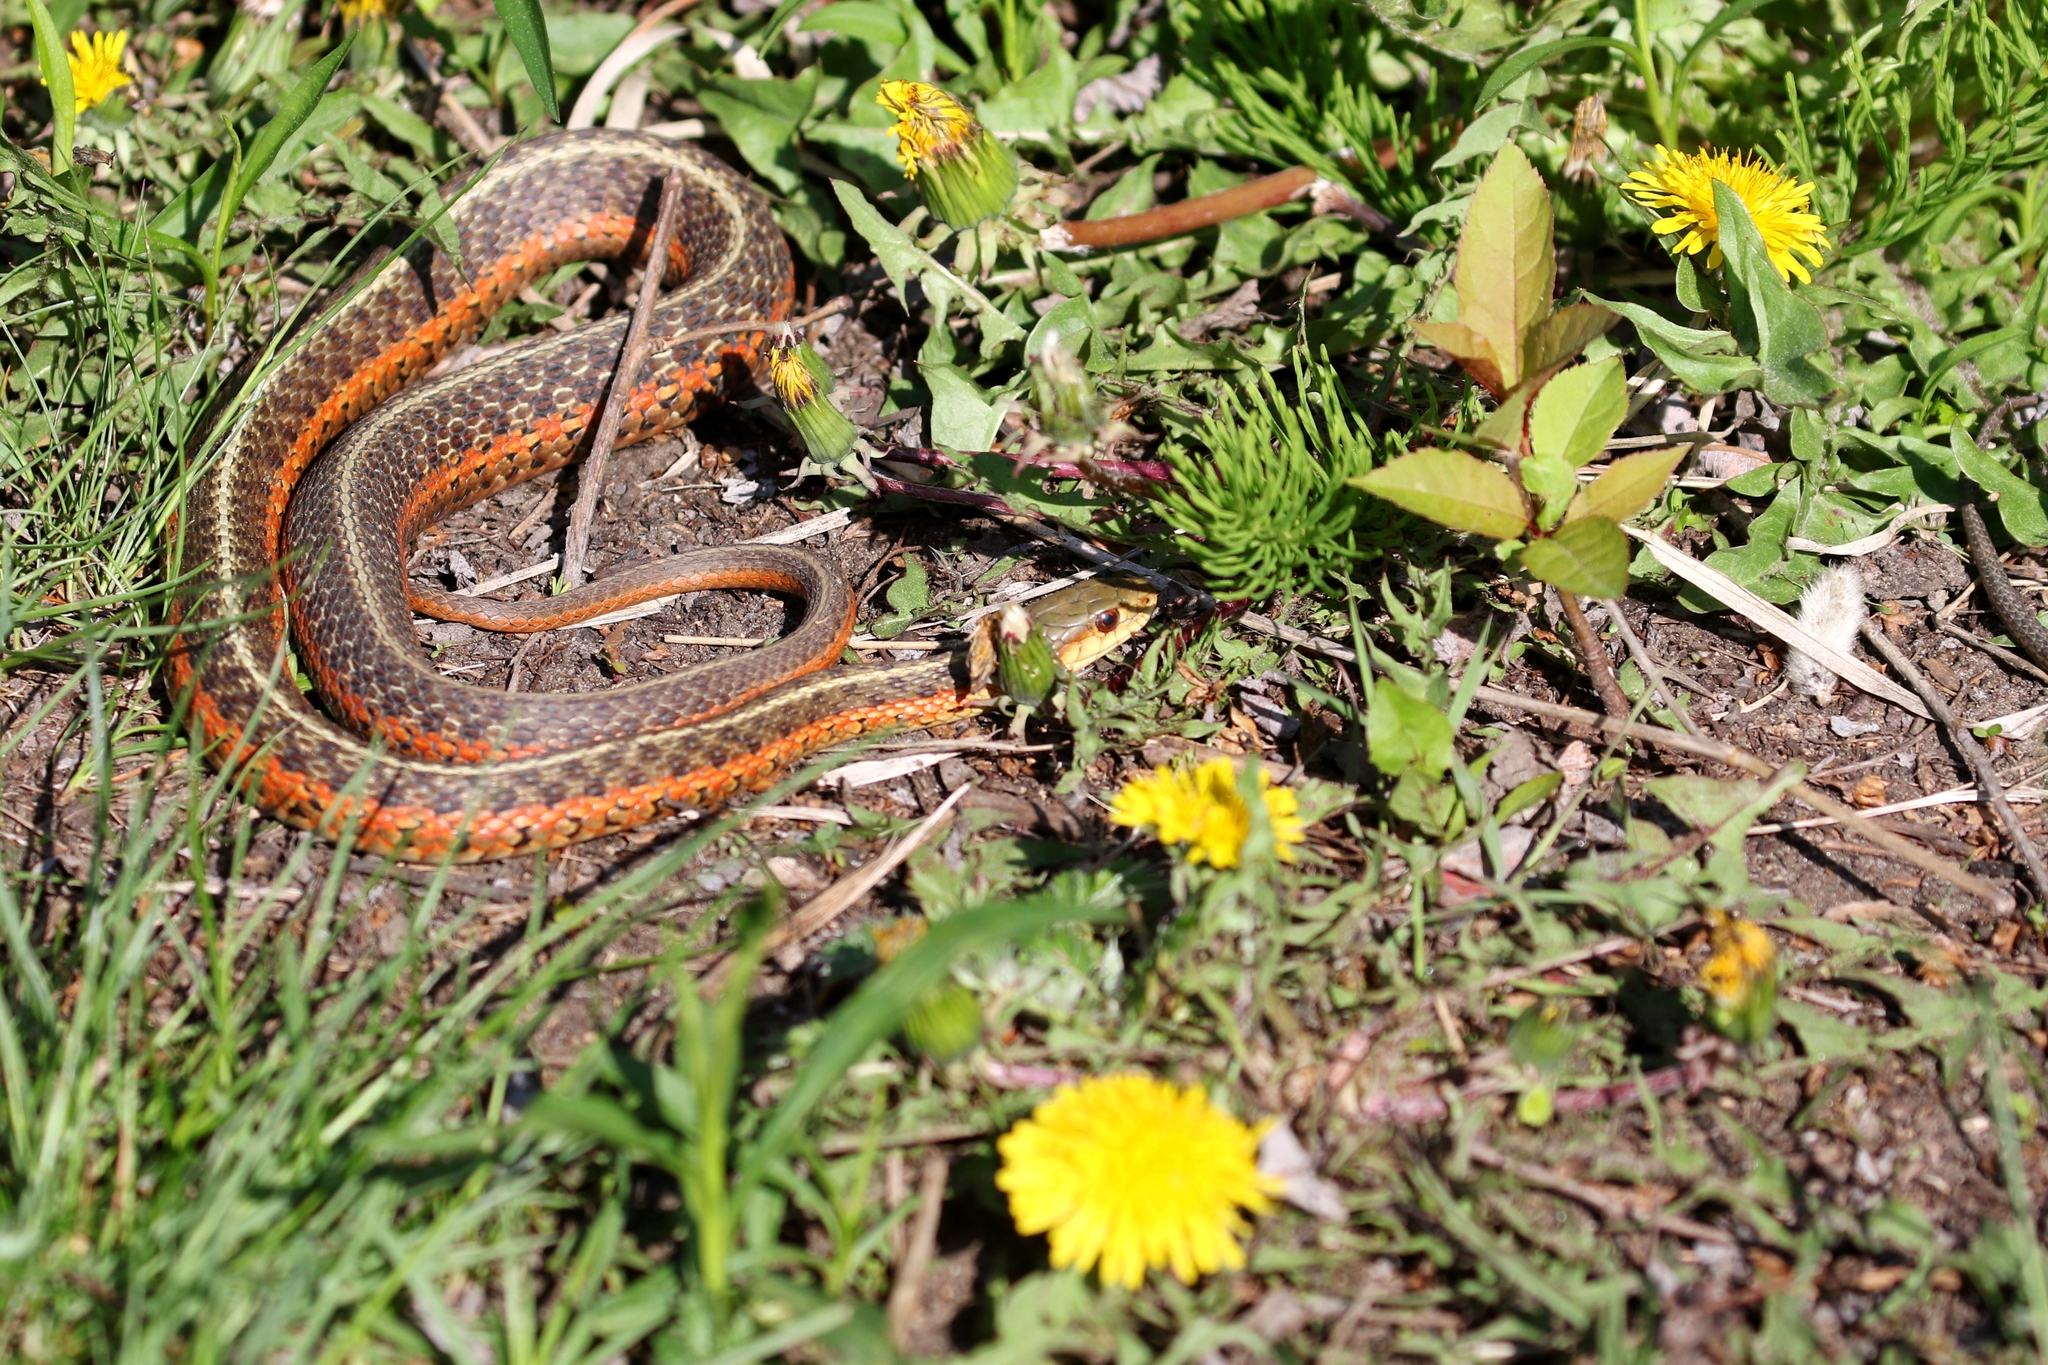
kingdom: Animalia
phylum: Chordata
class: Squamata
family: Colubridae
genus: Thamnophis
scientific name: Thamnophis sirtalis
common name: Common garter snake
